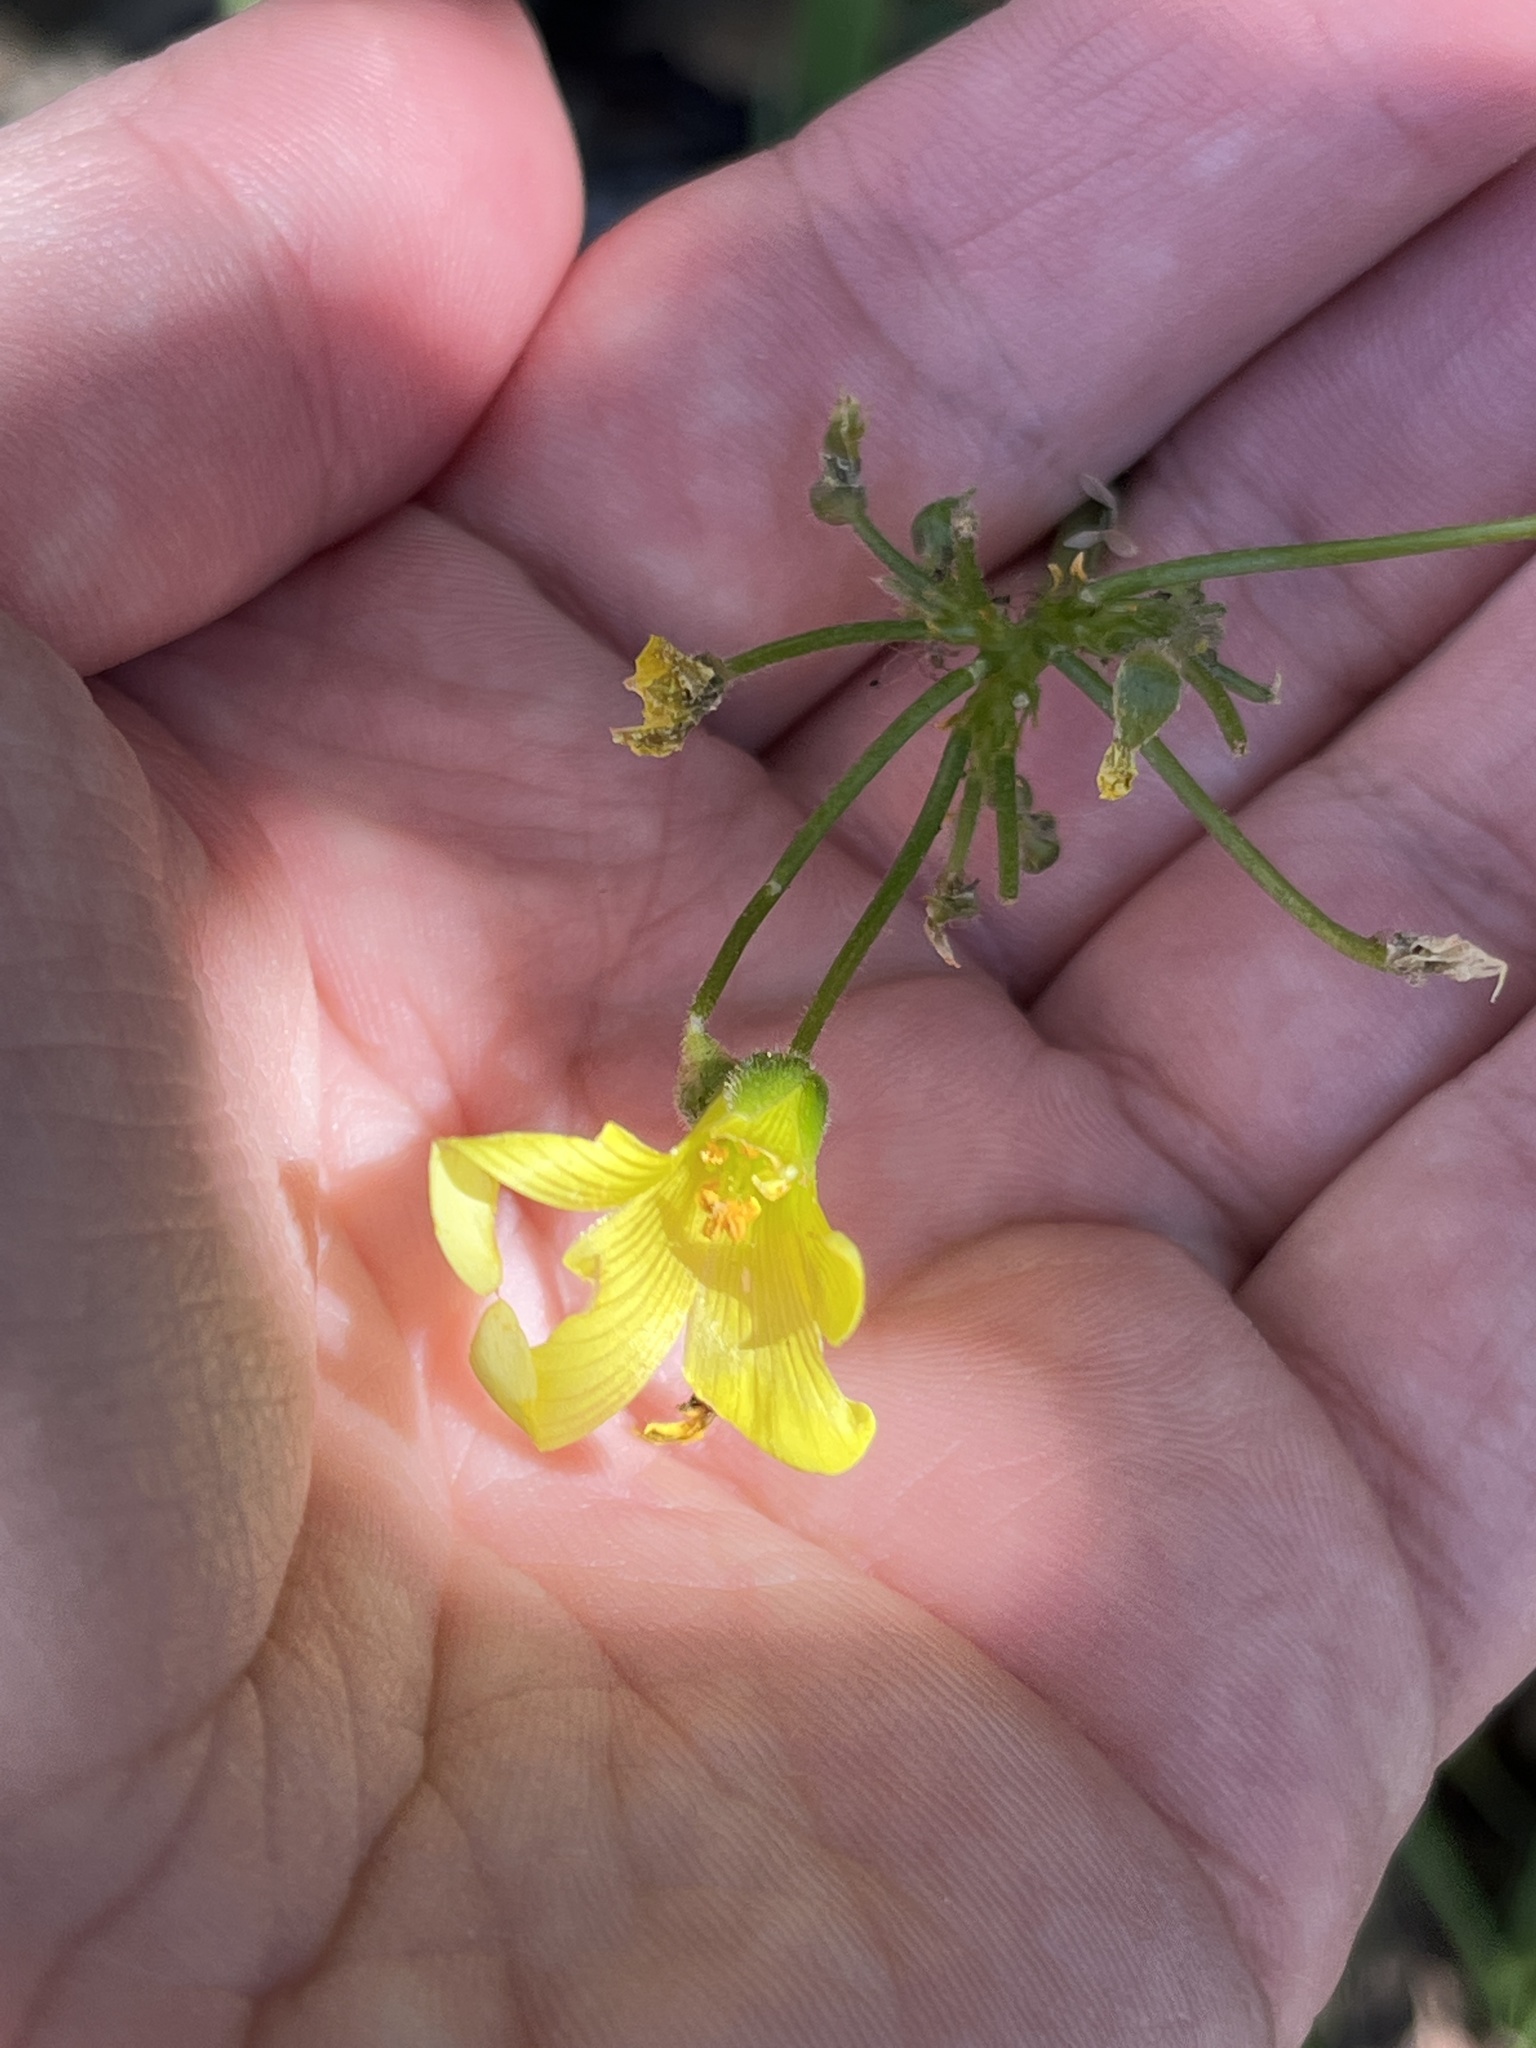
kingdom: Plantae
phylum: Tracheophyta
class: Magnoliopsida
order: Oxalidales
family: Oxalidaceae
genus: Oxalis
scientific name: Oxalis pes-caprae
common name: Bermuda-buttercup
